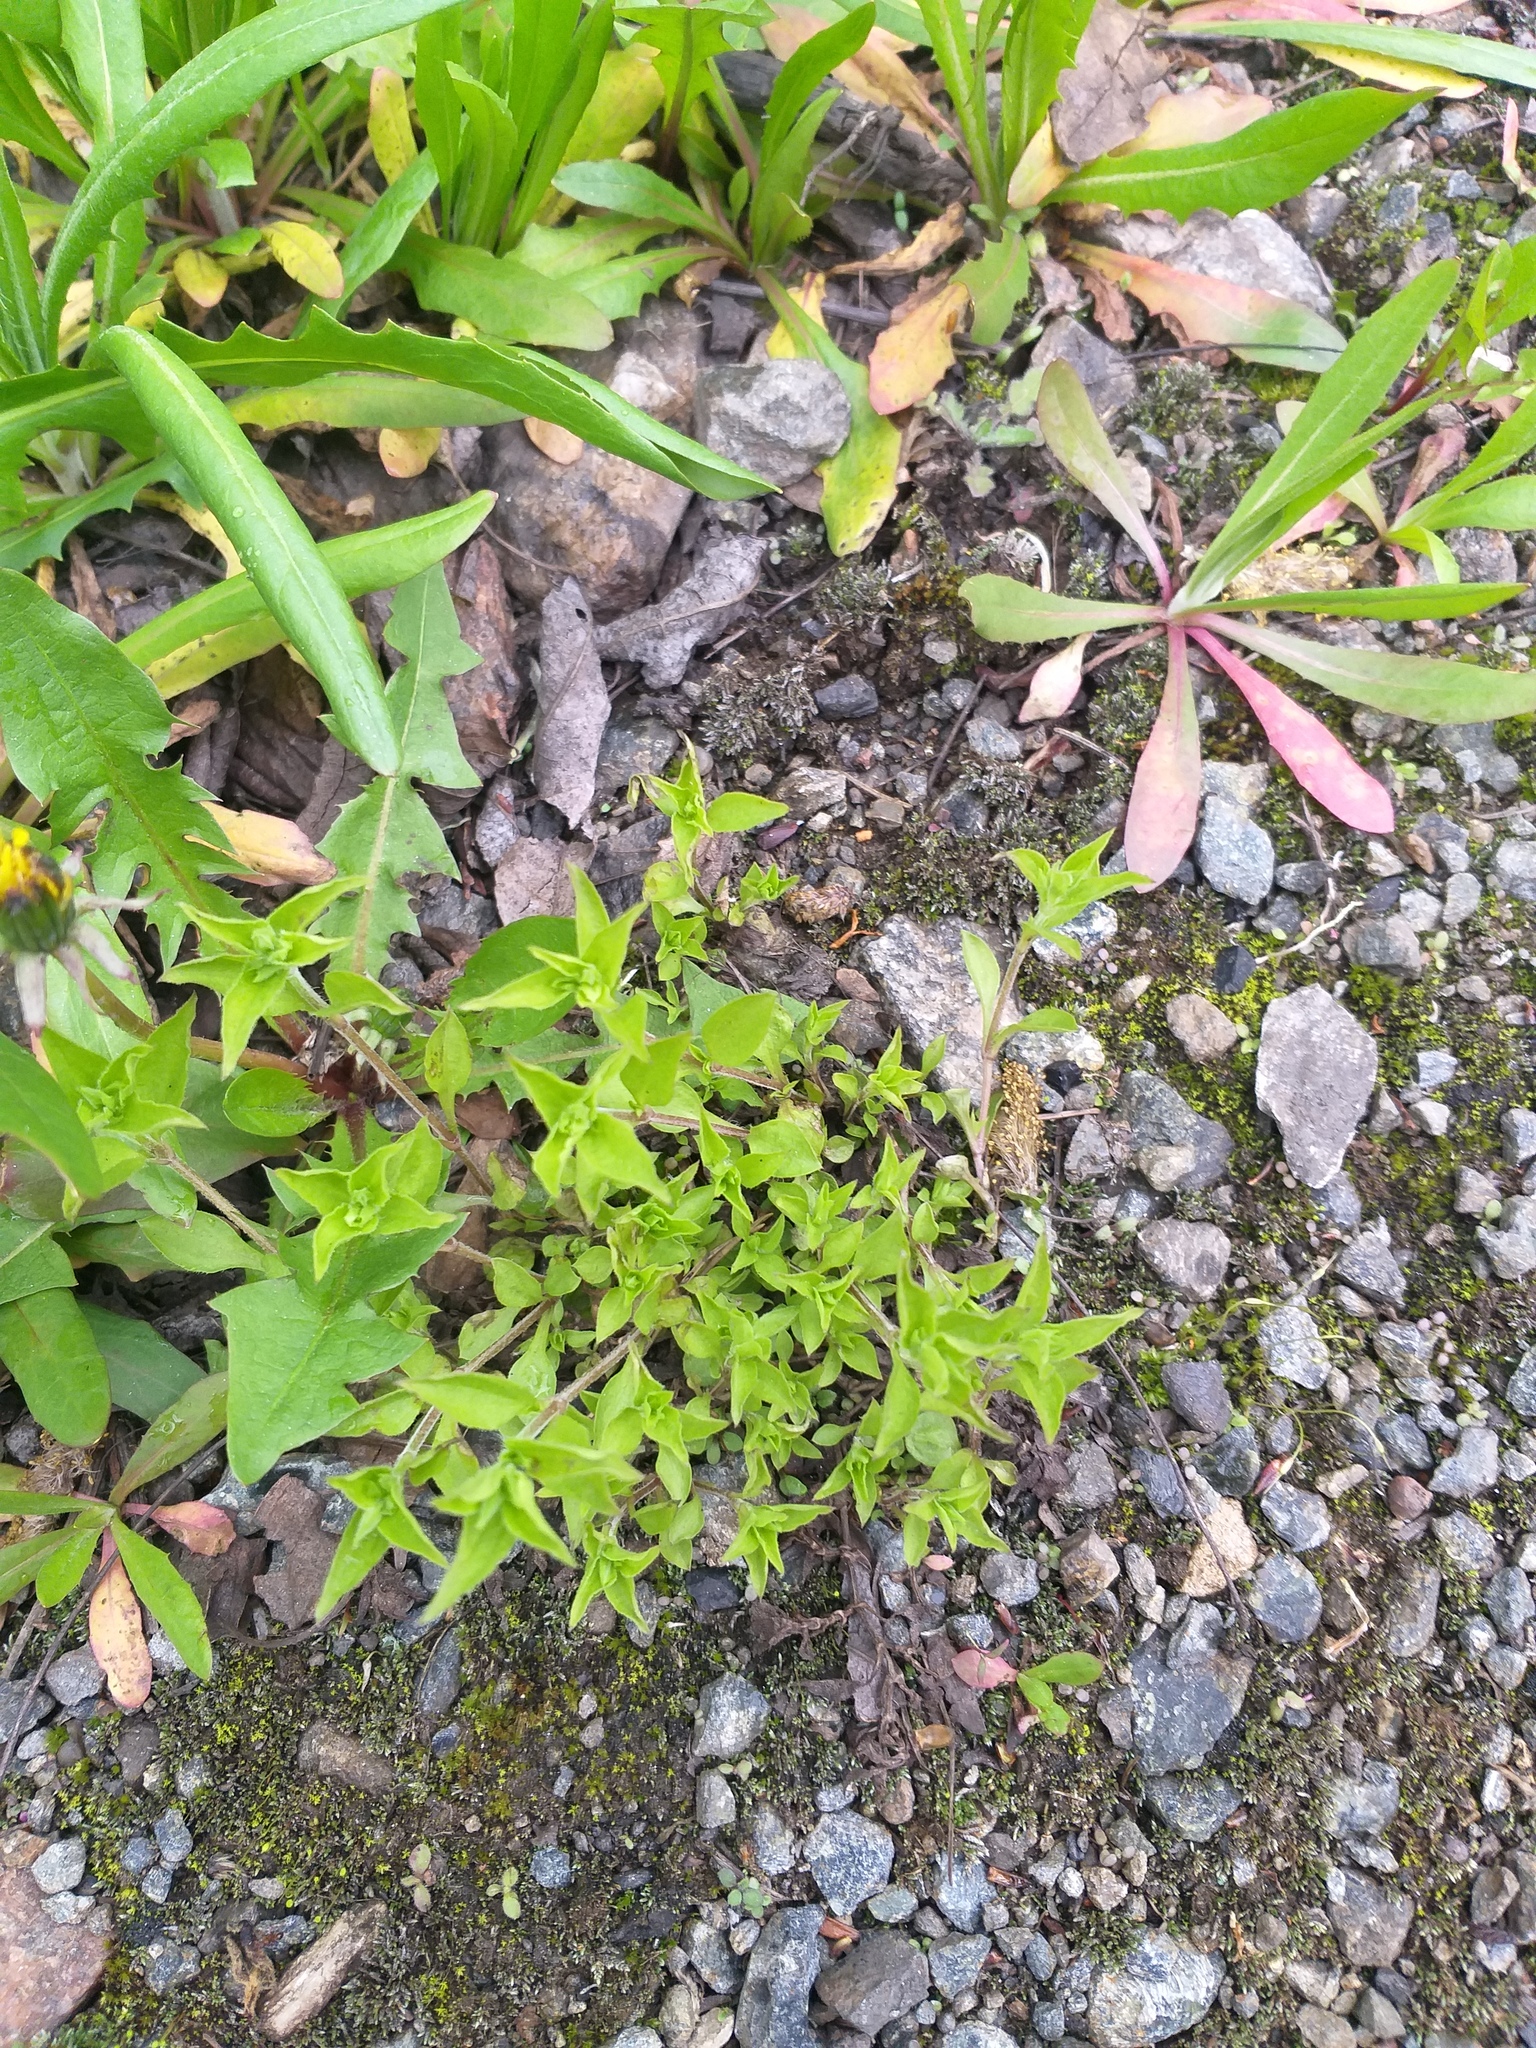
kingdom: Plantae
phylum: Tracheophyta
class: Magnoliopsida
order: Caryophyllales
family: Caryophyllaceae
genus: Moehringia
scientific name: Moehringia trinervia
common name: Three-nerved sandwort
